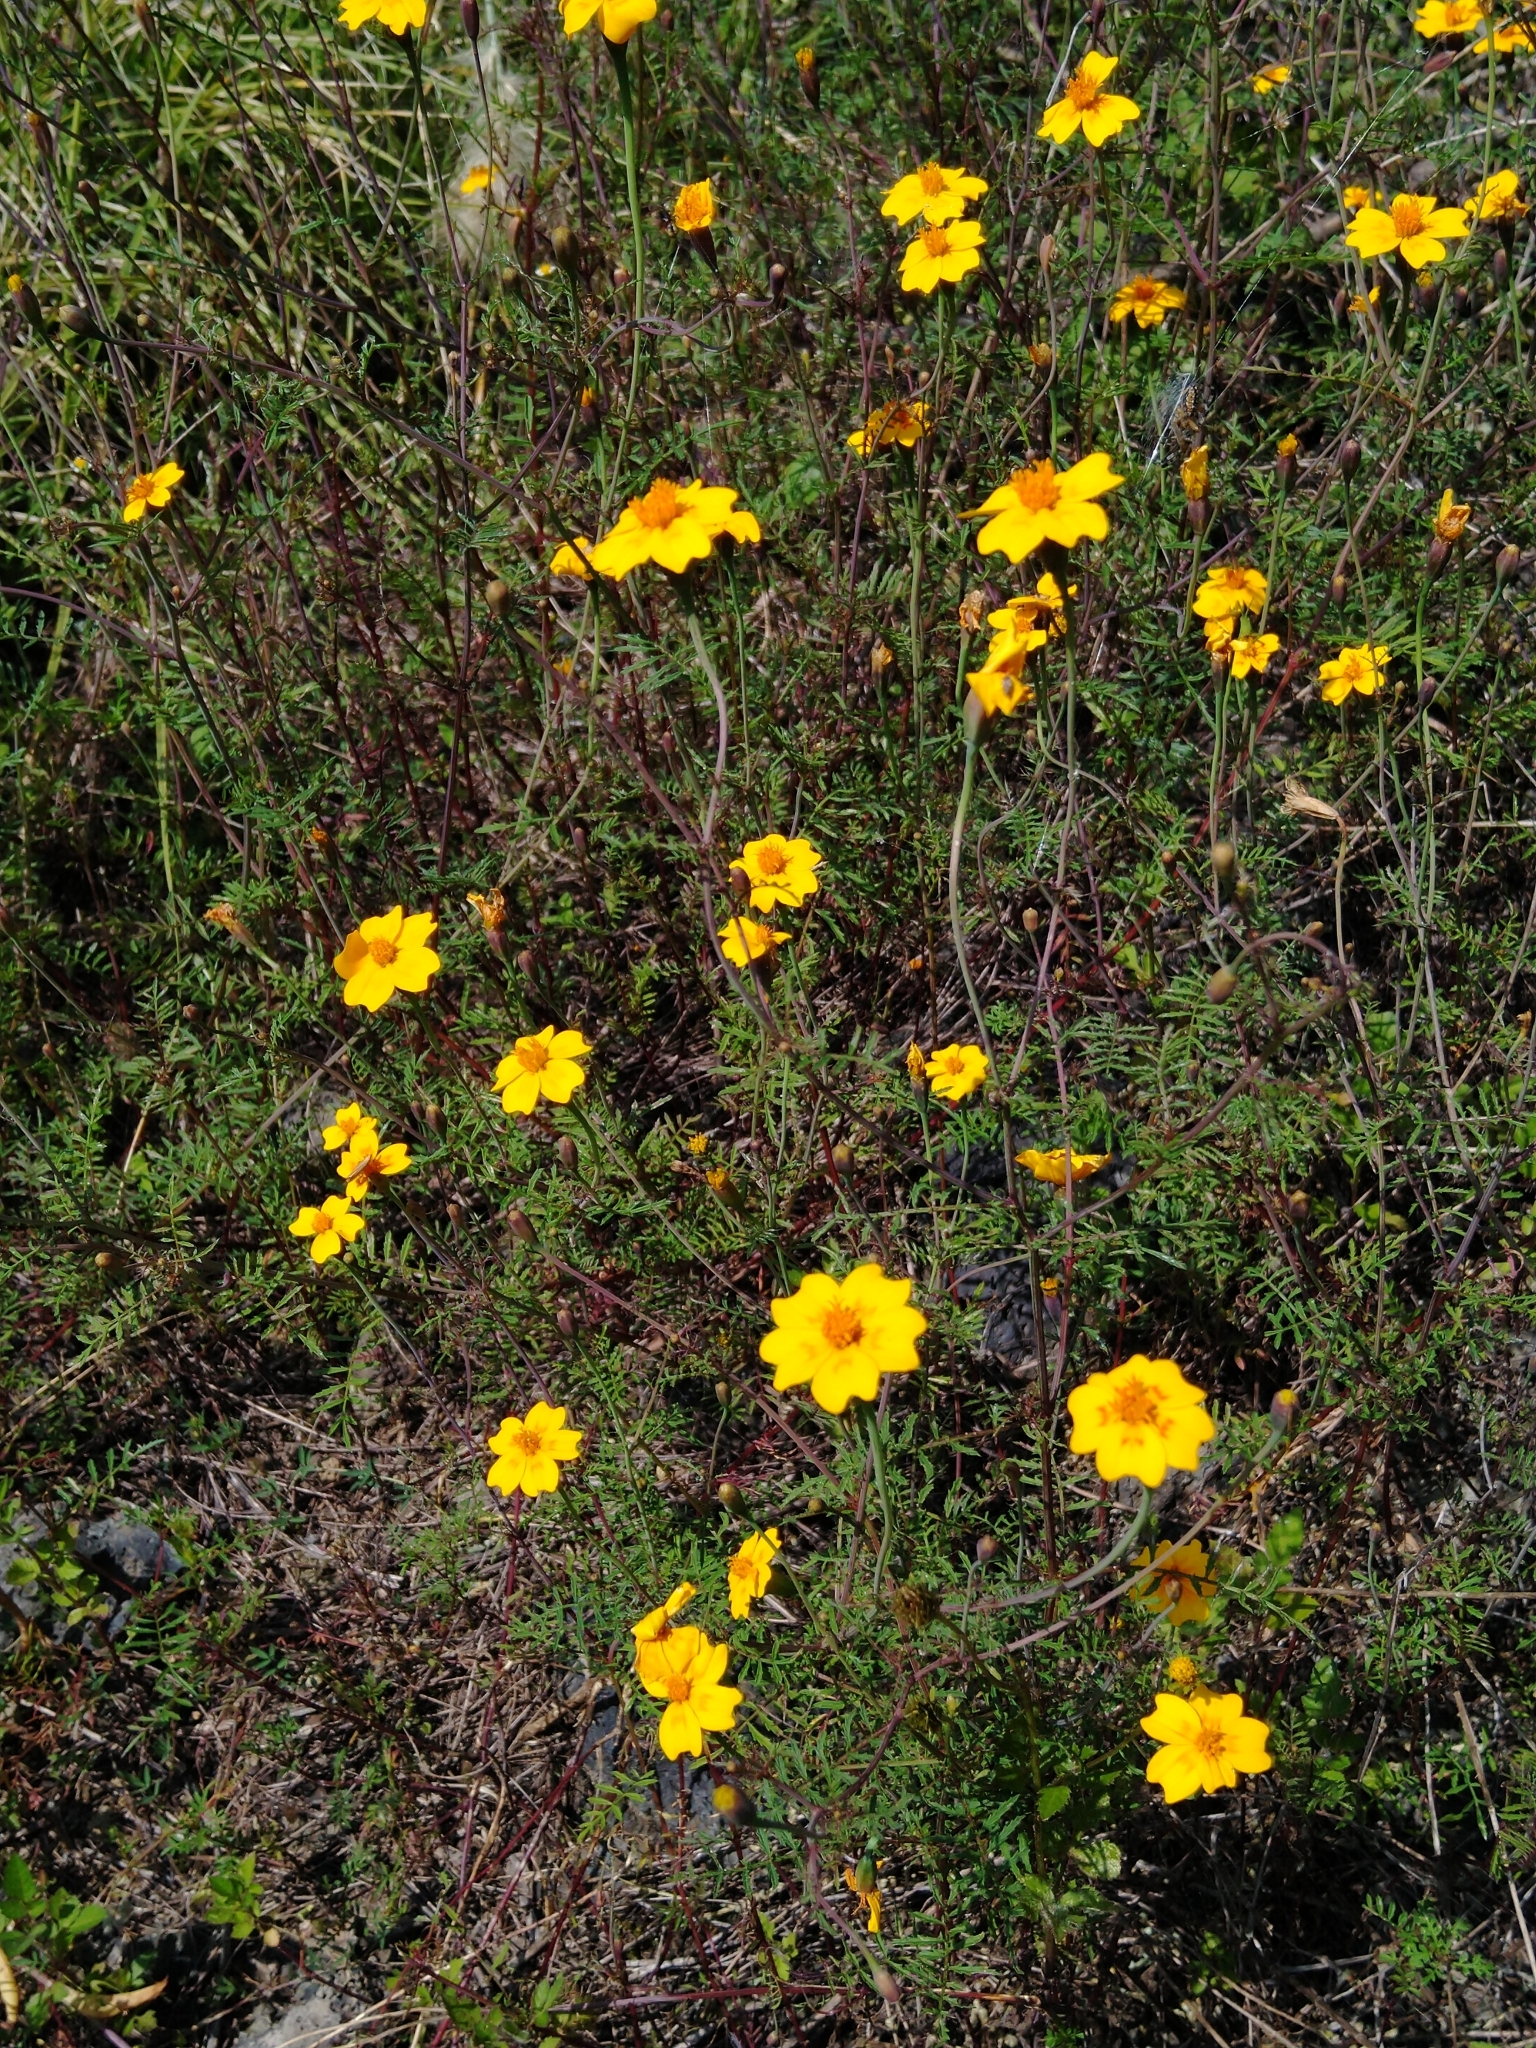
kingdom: Plantae
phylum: Tracheophyta
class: Magnoliopsida
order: Asterales
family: Asteraceae
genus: Tagetes
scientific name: Tagetes lunulata
